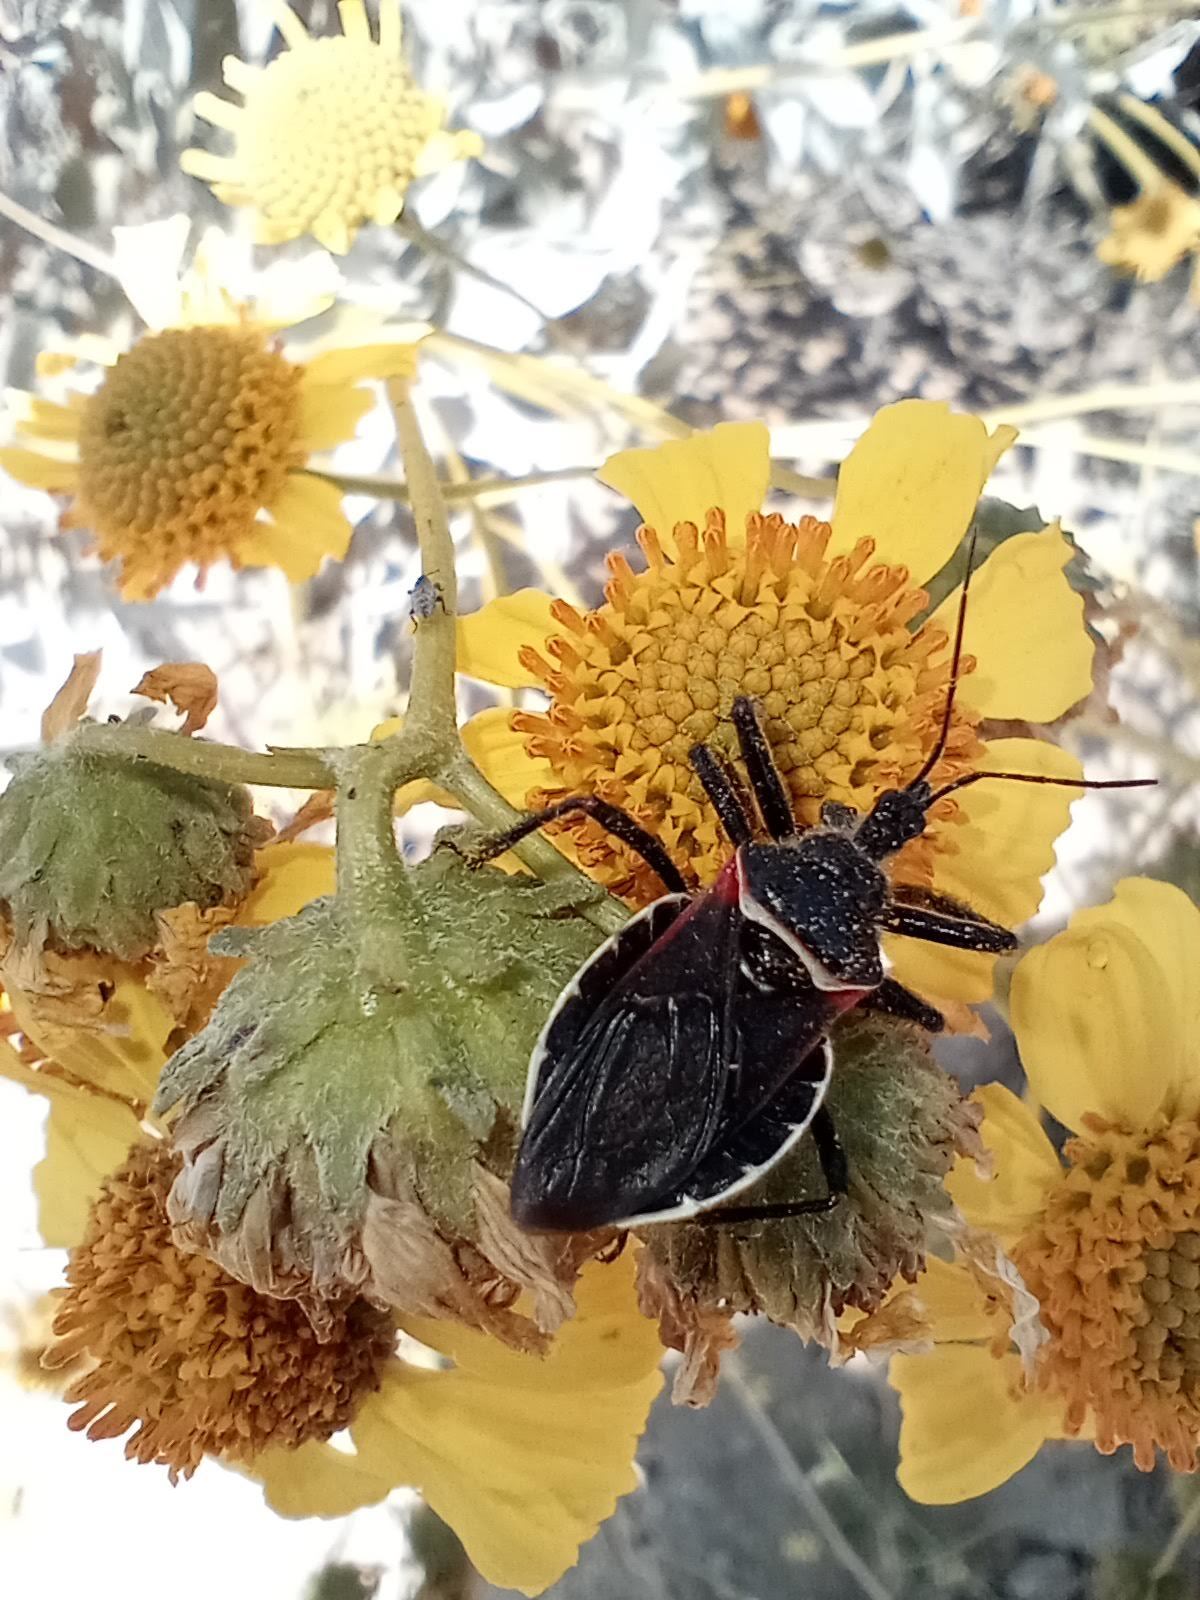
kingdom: Animalia
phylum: Arthropoda
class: Insecta
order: Hemiptera
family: Reduviidae
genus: Apiomerus
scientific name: Apiomerus californicus
